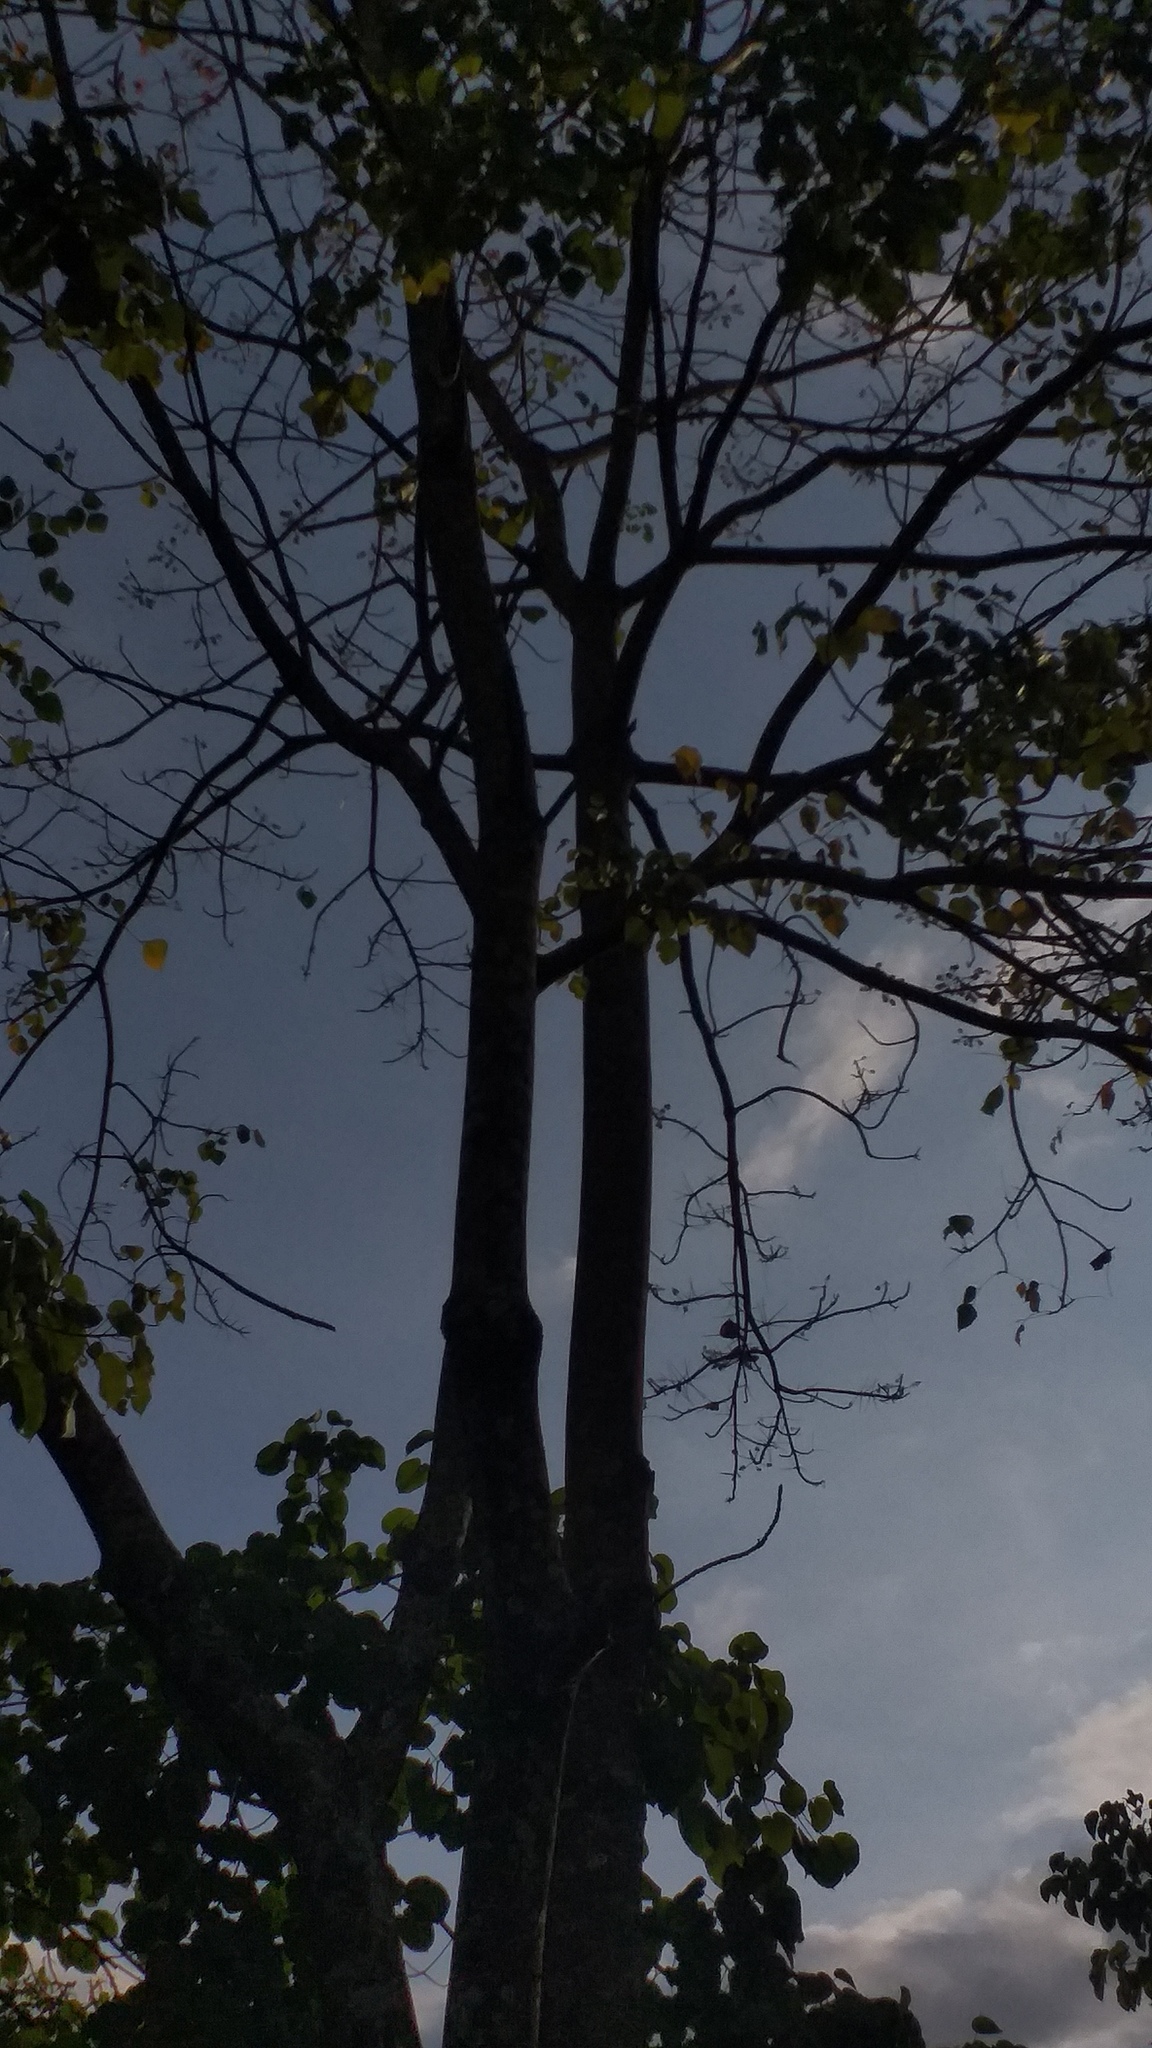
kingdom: Plantae
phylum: Tracheophyta
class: Magnoliopsida
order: Fabales
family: Fabaceae
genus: Erythrina
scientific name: Erythrina poeppigiana
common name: Coral tree
